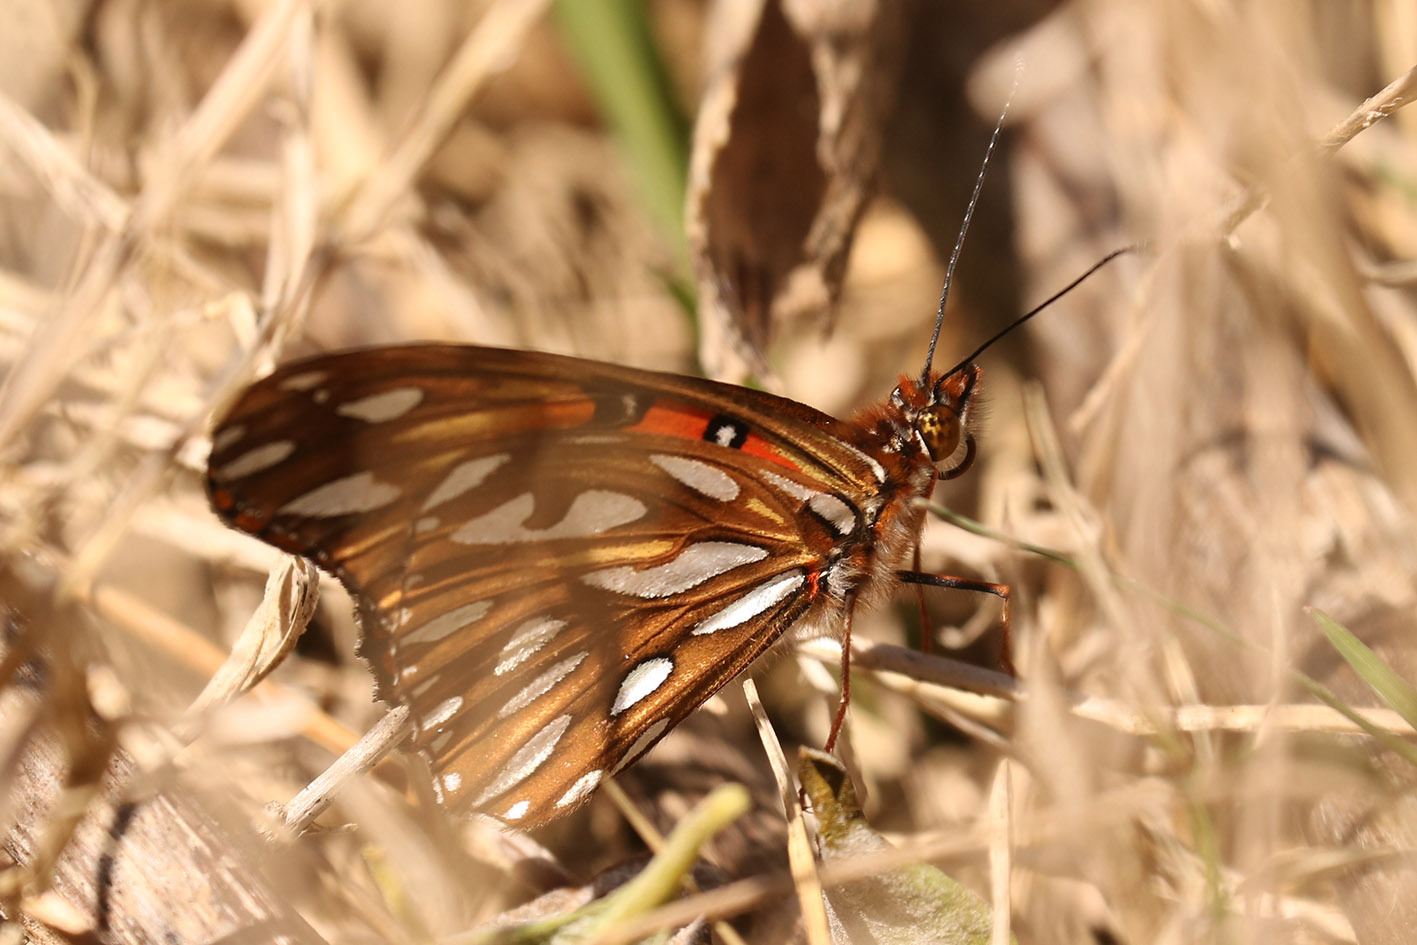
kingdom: Animalia
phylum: Arthropoda
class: Insecta
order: Lepidoptera
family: Nymphalidae
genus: Dione
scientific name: Dione vanillae
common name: Gulf fritillary
